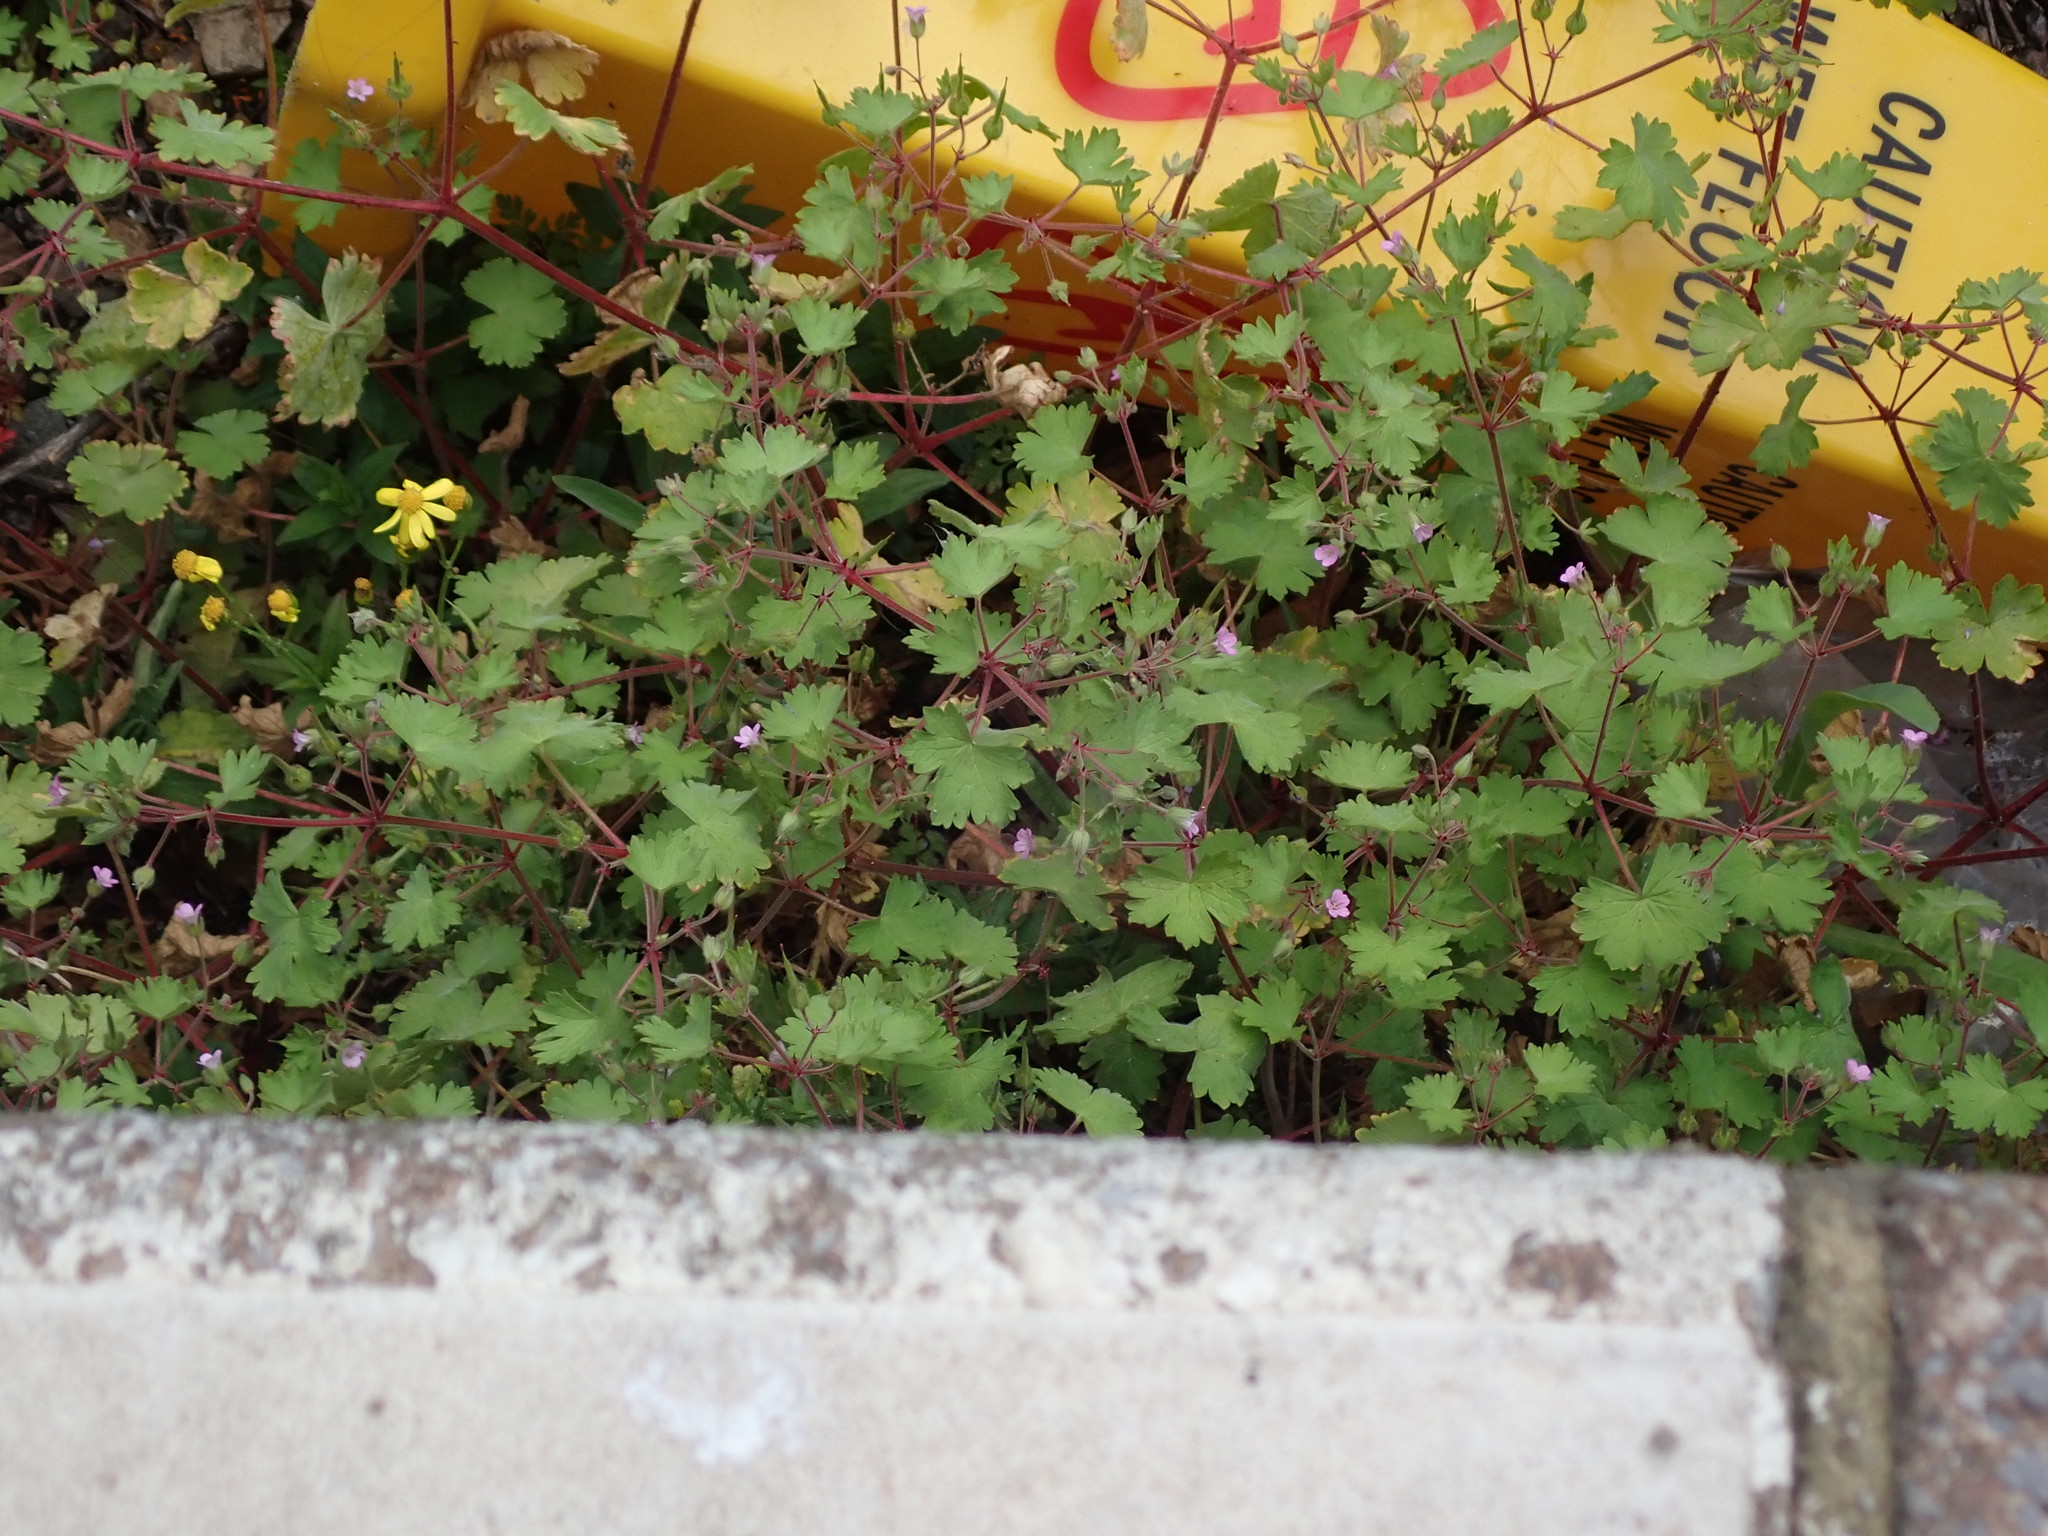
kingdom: Plantae
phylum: Tracheophyta
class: Magnoliopsida
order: Geraniales
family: Geraniaceae
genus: Geranium
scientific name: Geranium rotundifolium
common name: Round-leaved crane's-bill
